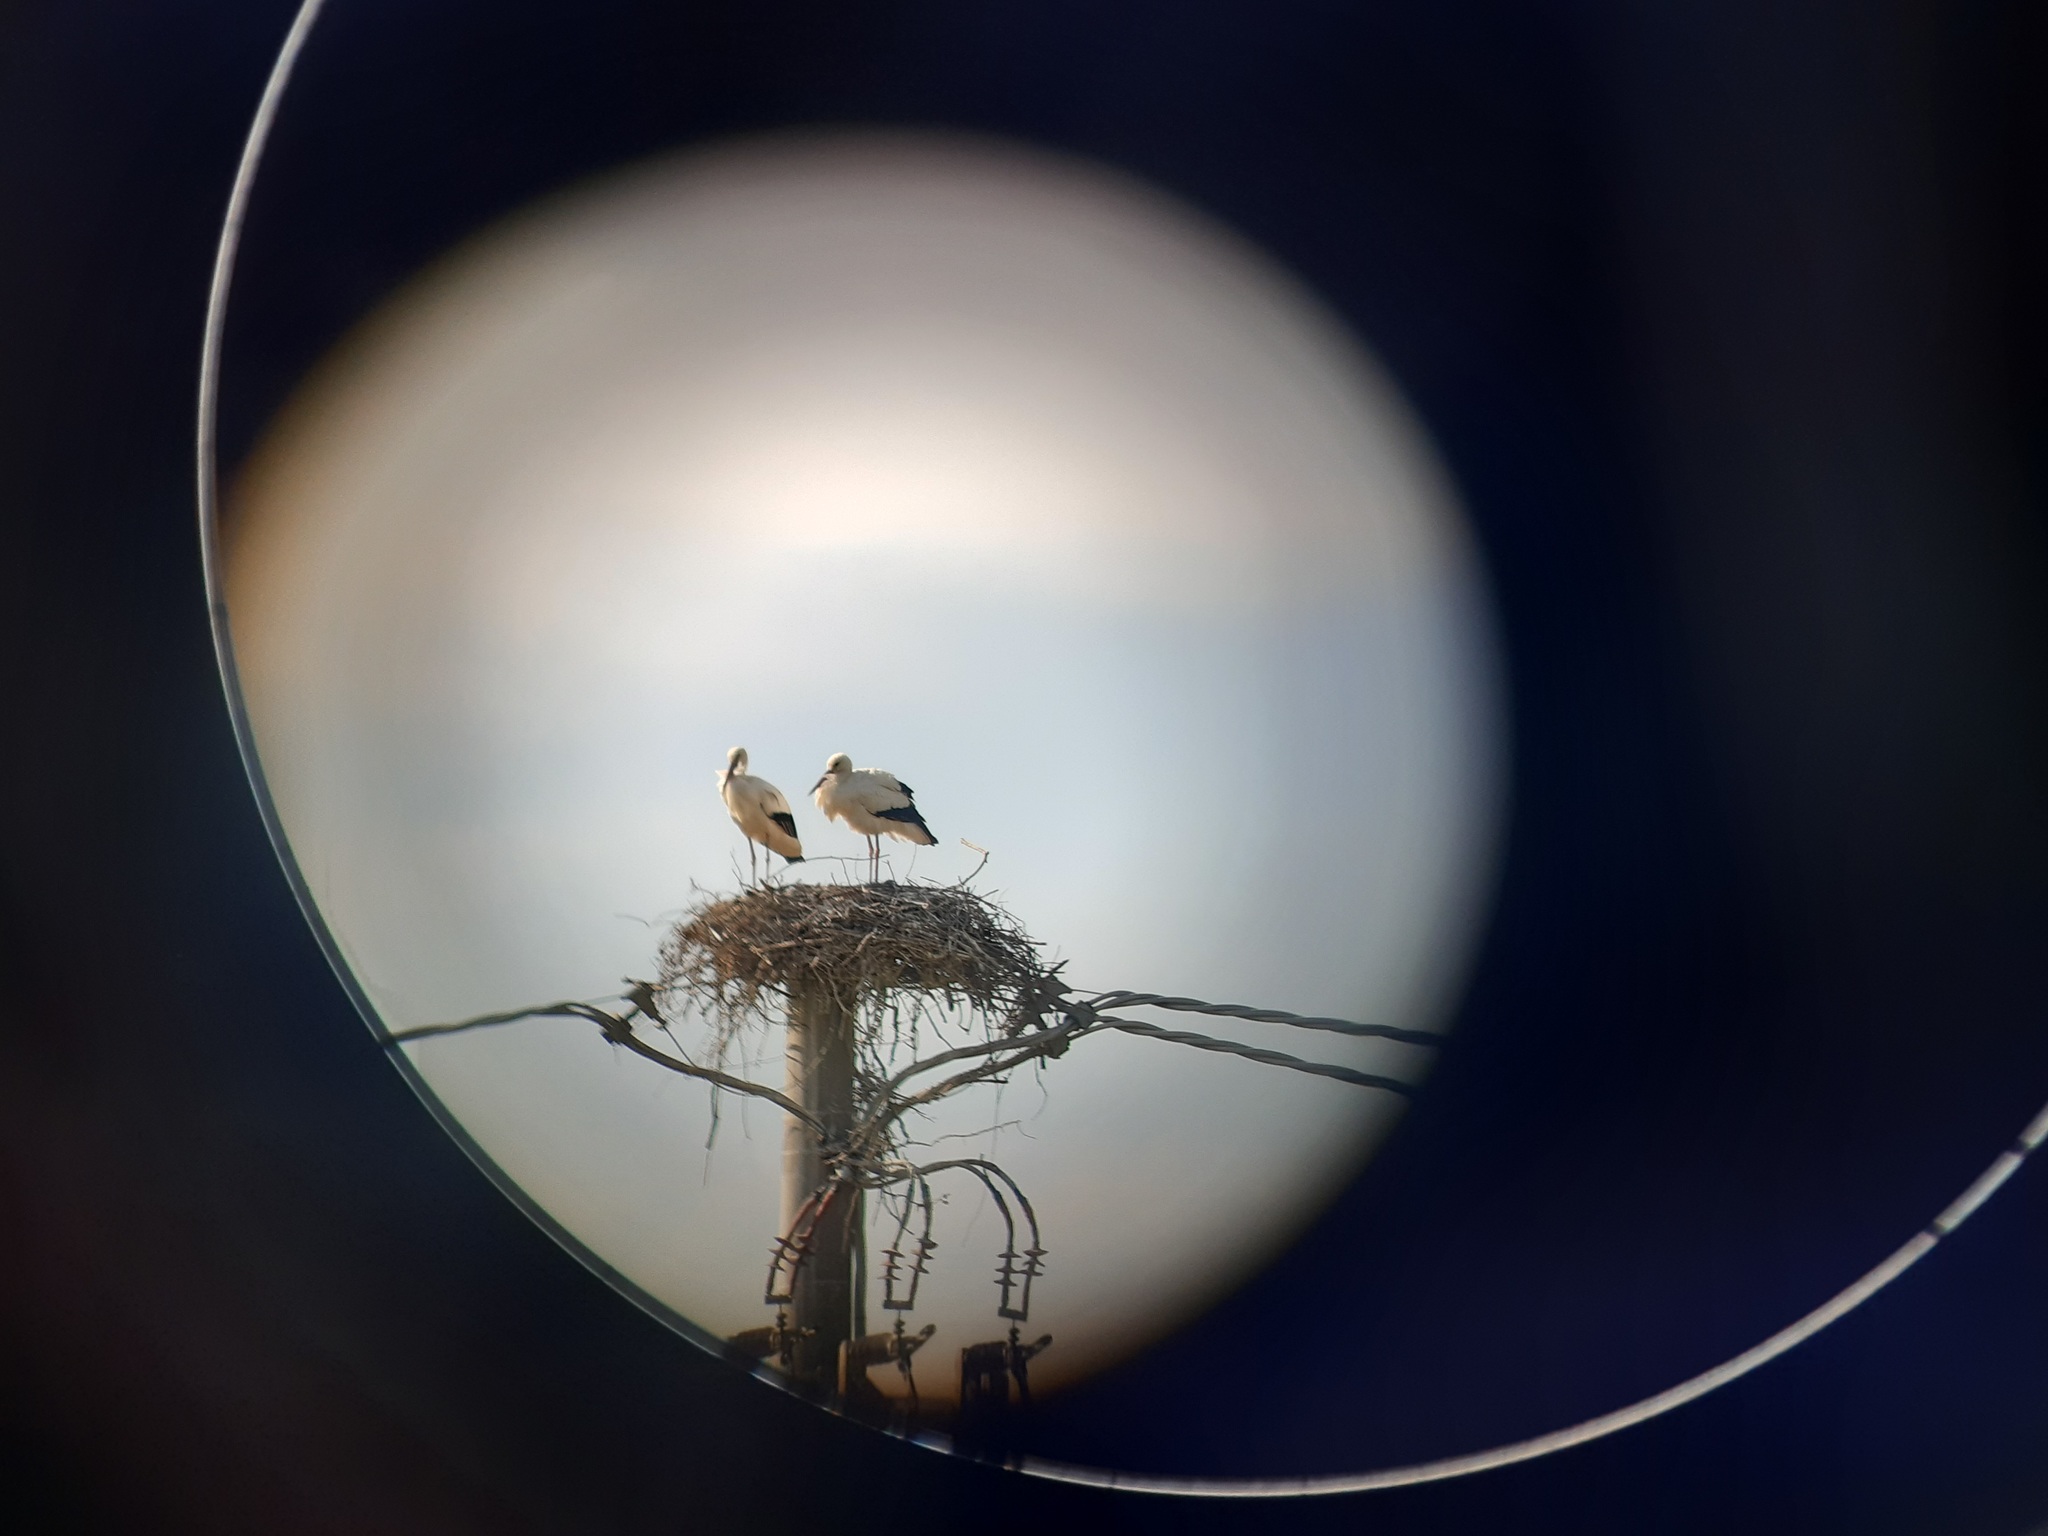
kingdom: Animalia
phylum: Chordata
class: Aves
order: Ciconiiformes
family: Ciconiidae
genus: Ciconia
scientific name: Ciconia ciconia
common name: White stork
